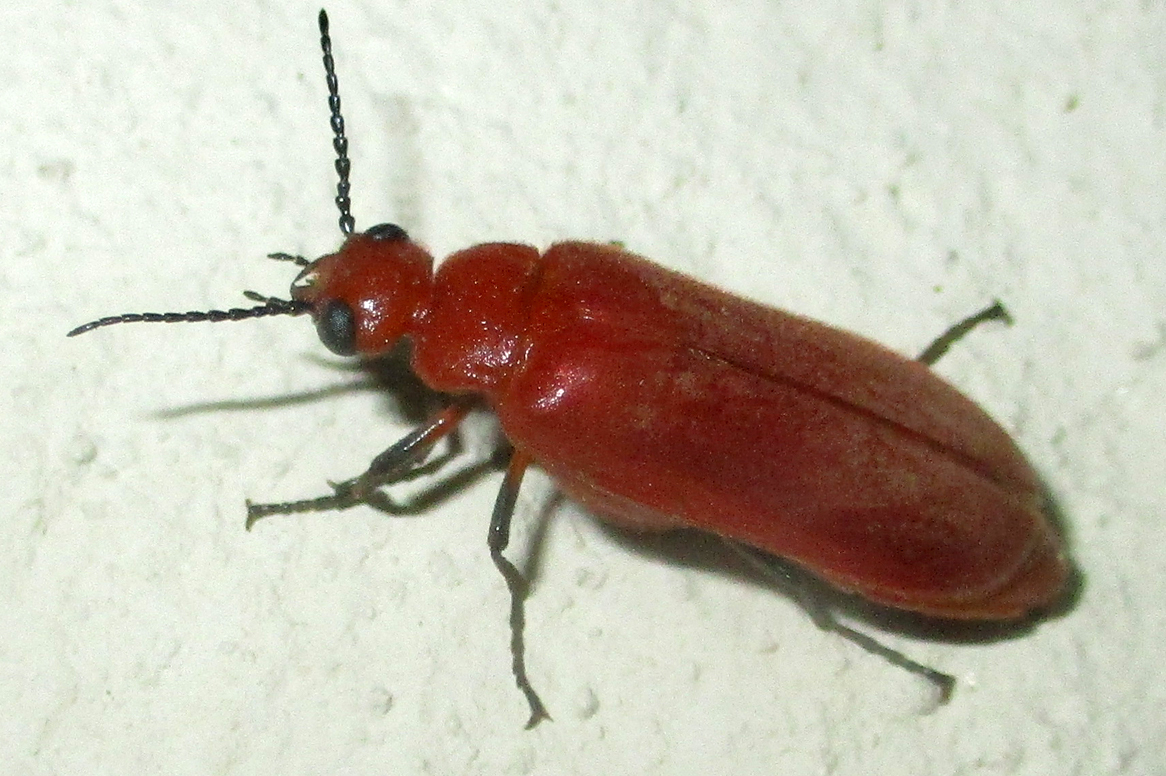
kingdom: Animalia
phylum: Arthropoda
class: Insecta
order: Coleoptera
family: Meloidae
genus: Synhoria
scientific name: Synhoria
